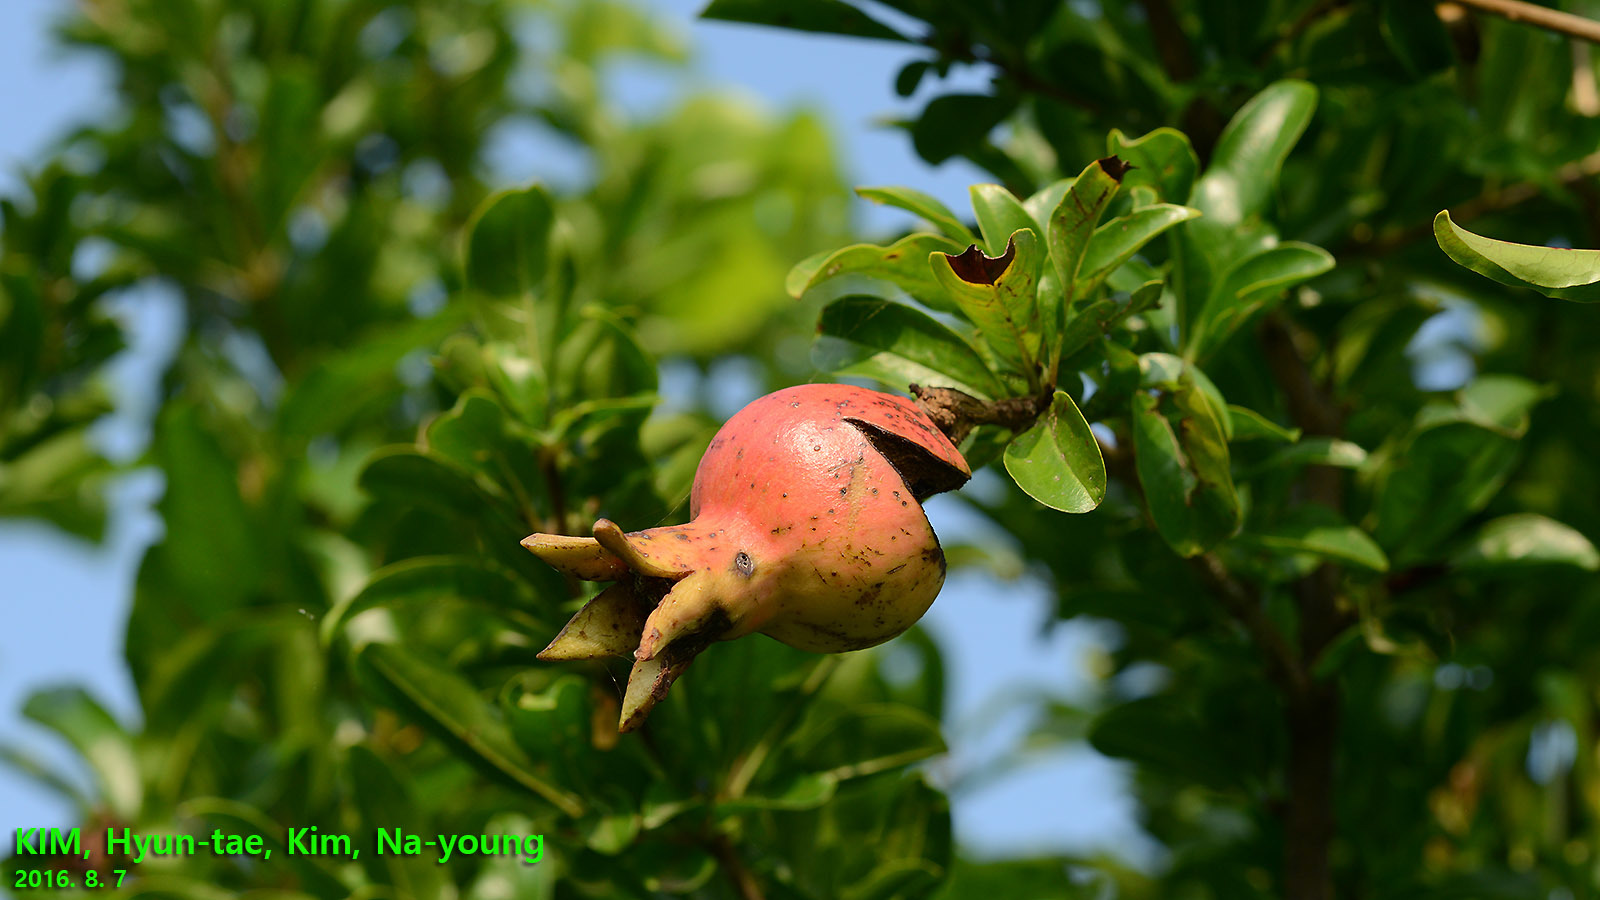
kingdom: Plantae
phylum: Tracheophyta
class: Magnoliopsida
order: Myrtales
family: Lythraceae
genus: Punica
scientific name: Punica granatum
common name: Pomegranate
